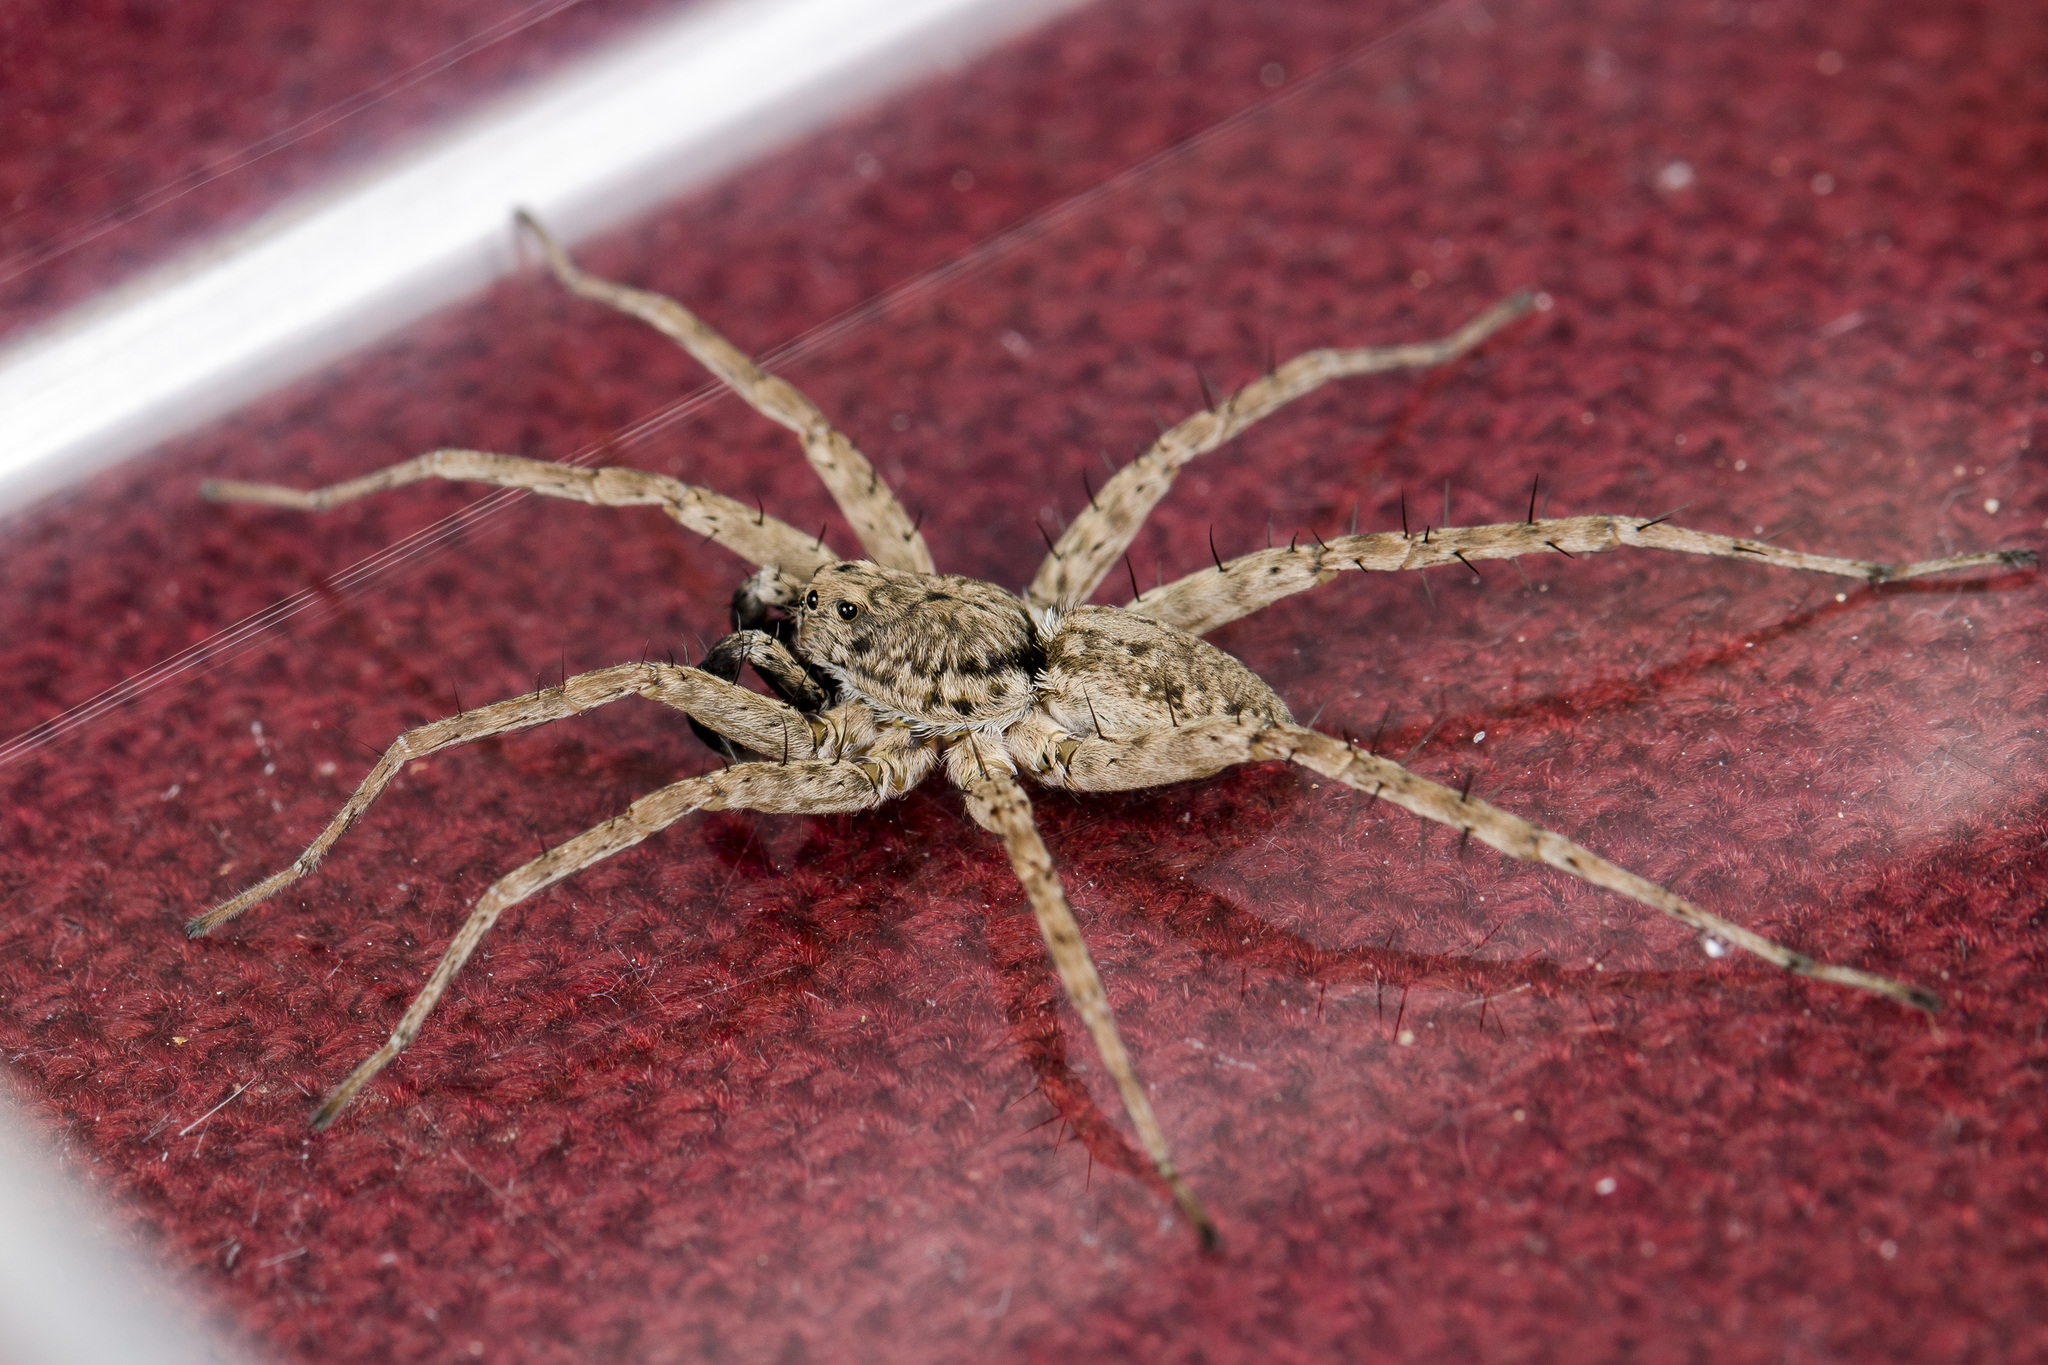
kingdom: Animalia
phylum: Arthropoda
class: Arachnida
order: Araneae
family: Lycosidae
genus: Pardosa
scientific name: Pardosa nebulosa
